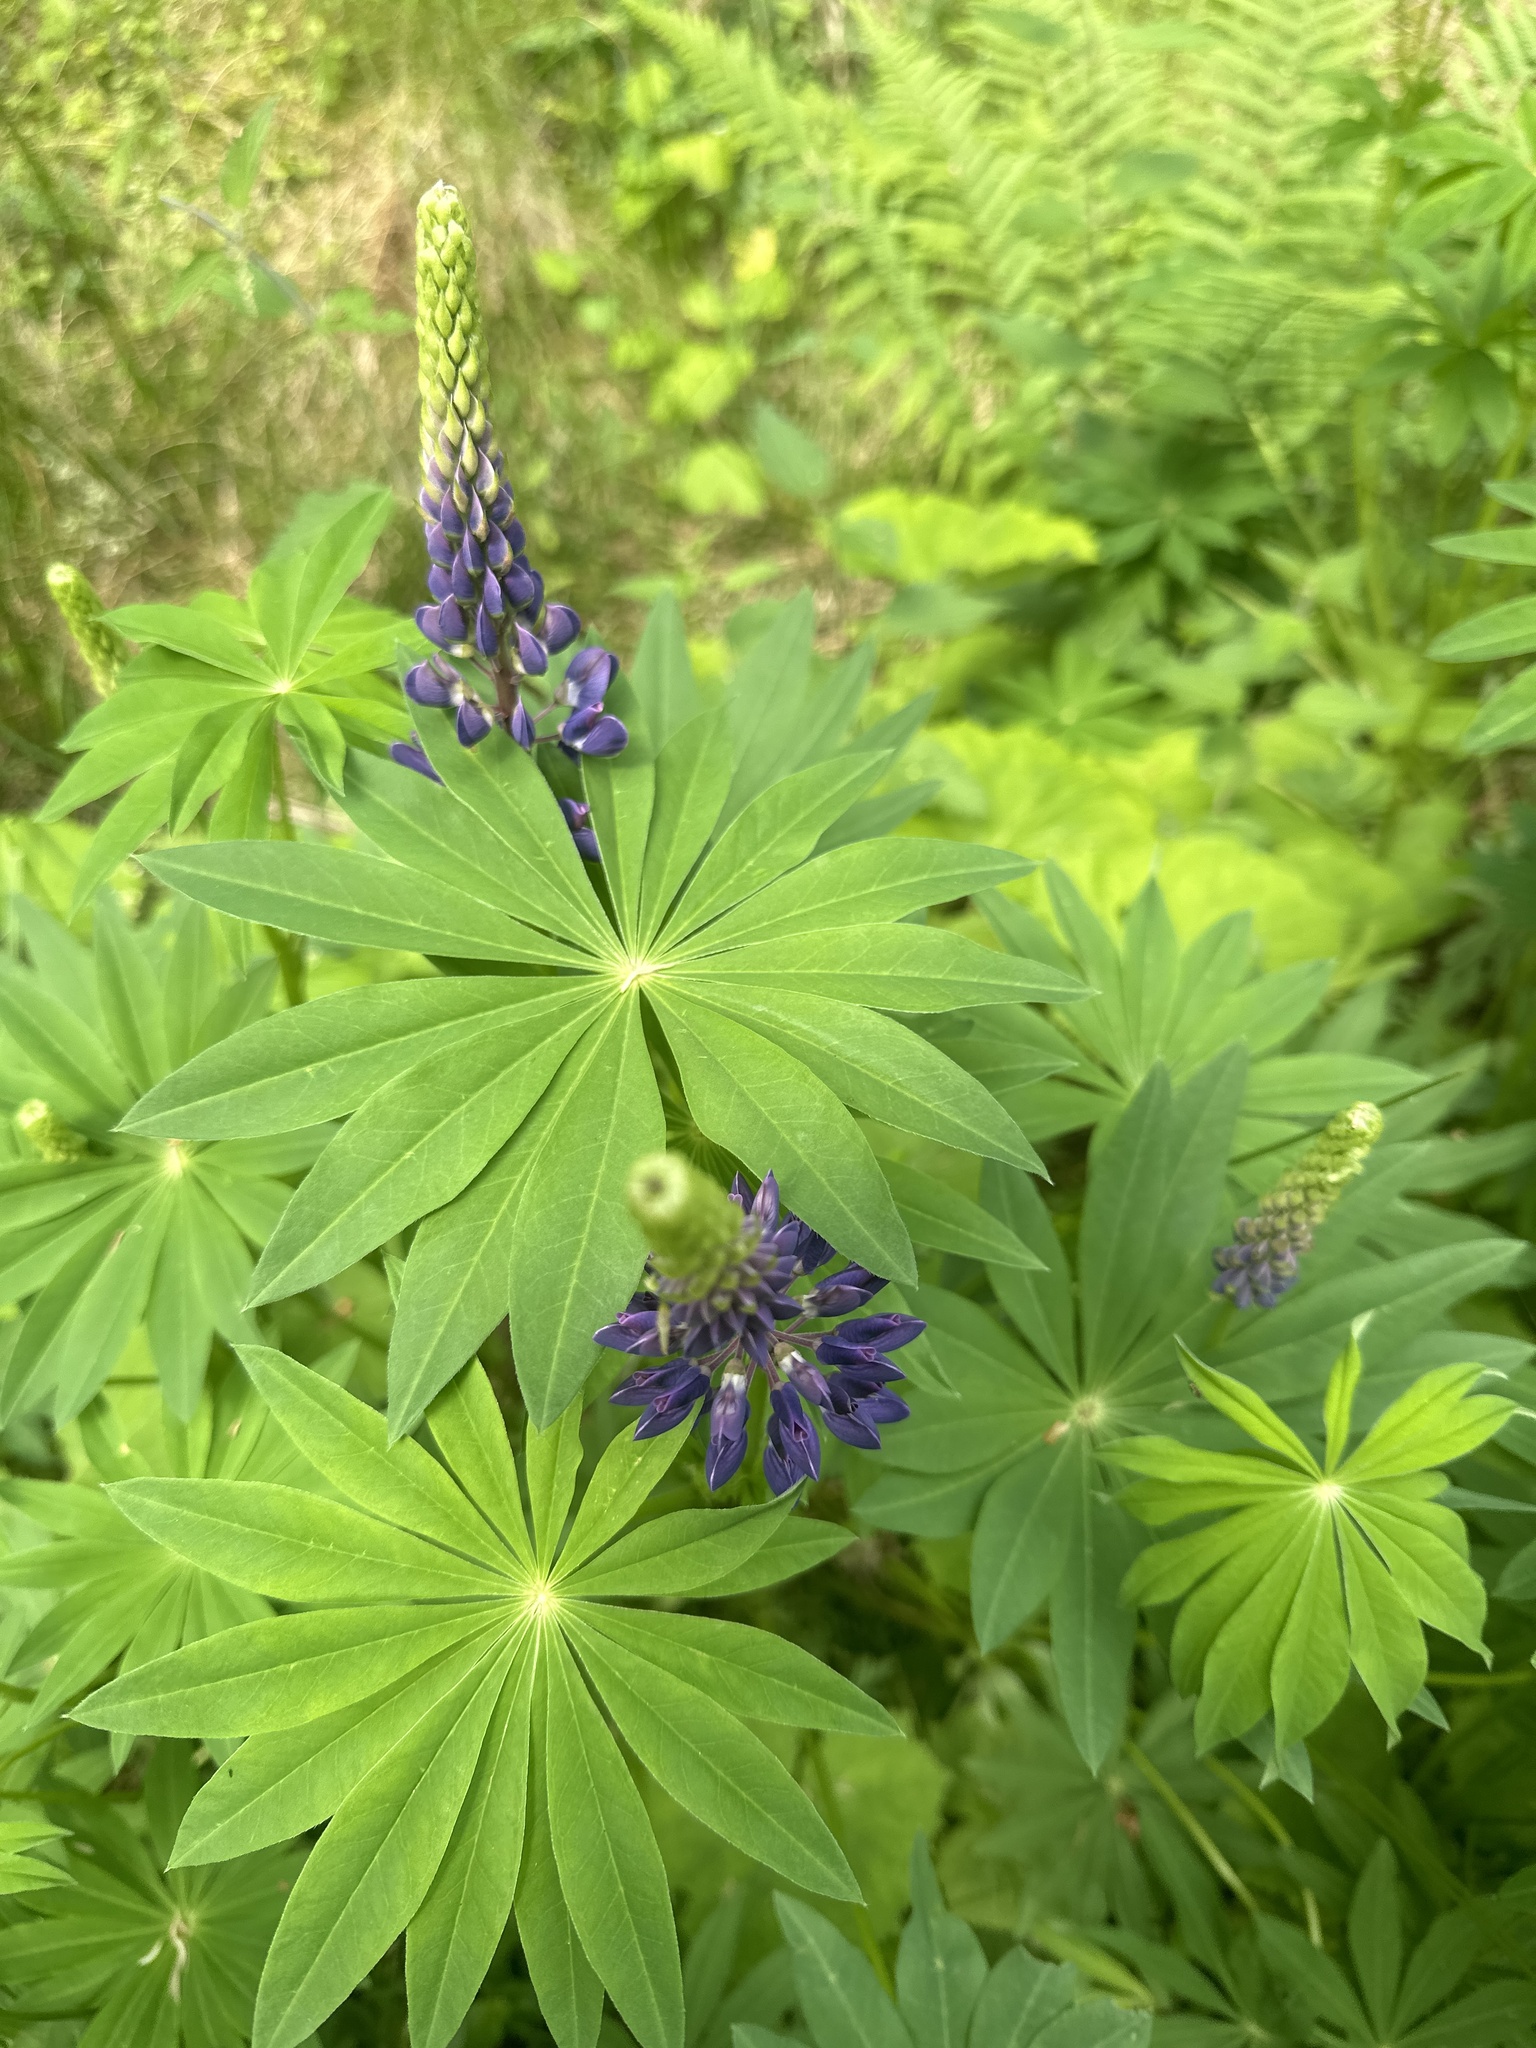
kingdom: Plantae
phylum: Tracheophyta
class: Magnoliopsida
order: Fabales
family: Fabaceae
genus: Lupinus
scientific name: Lupinus polyphyllus
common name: Garden lupin
